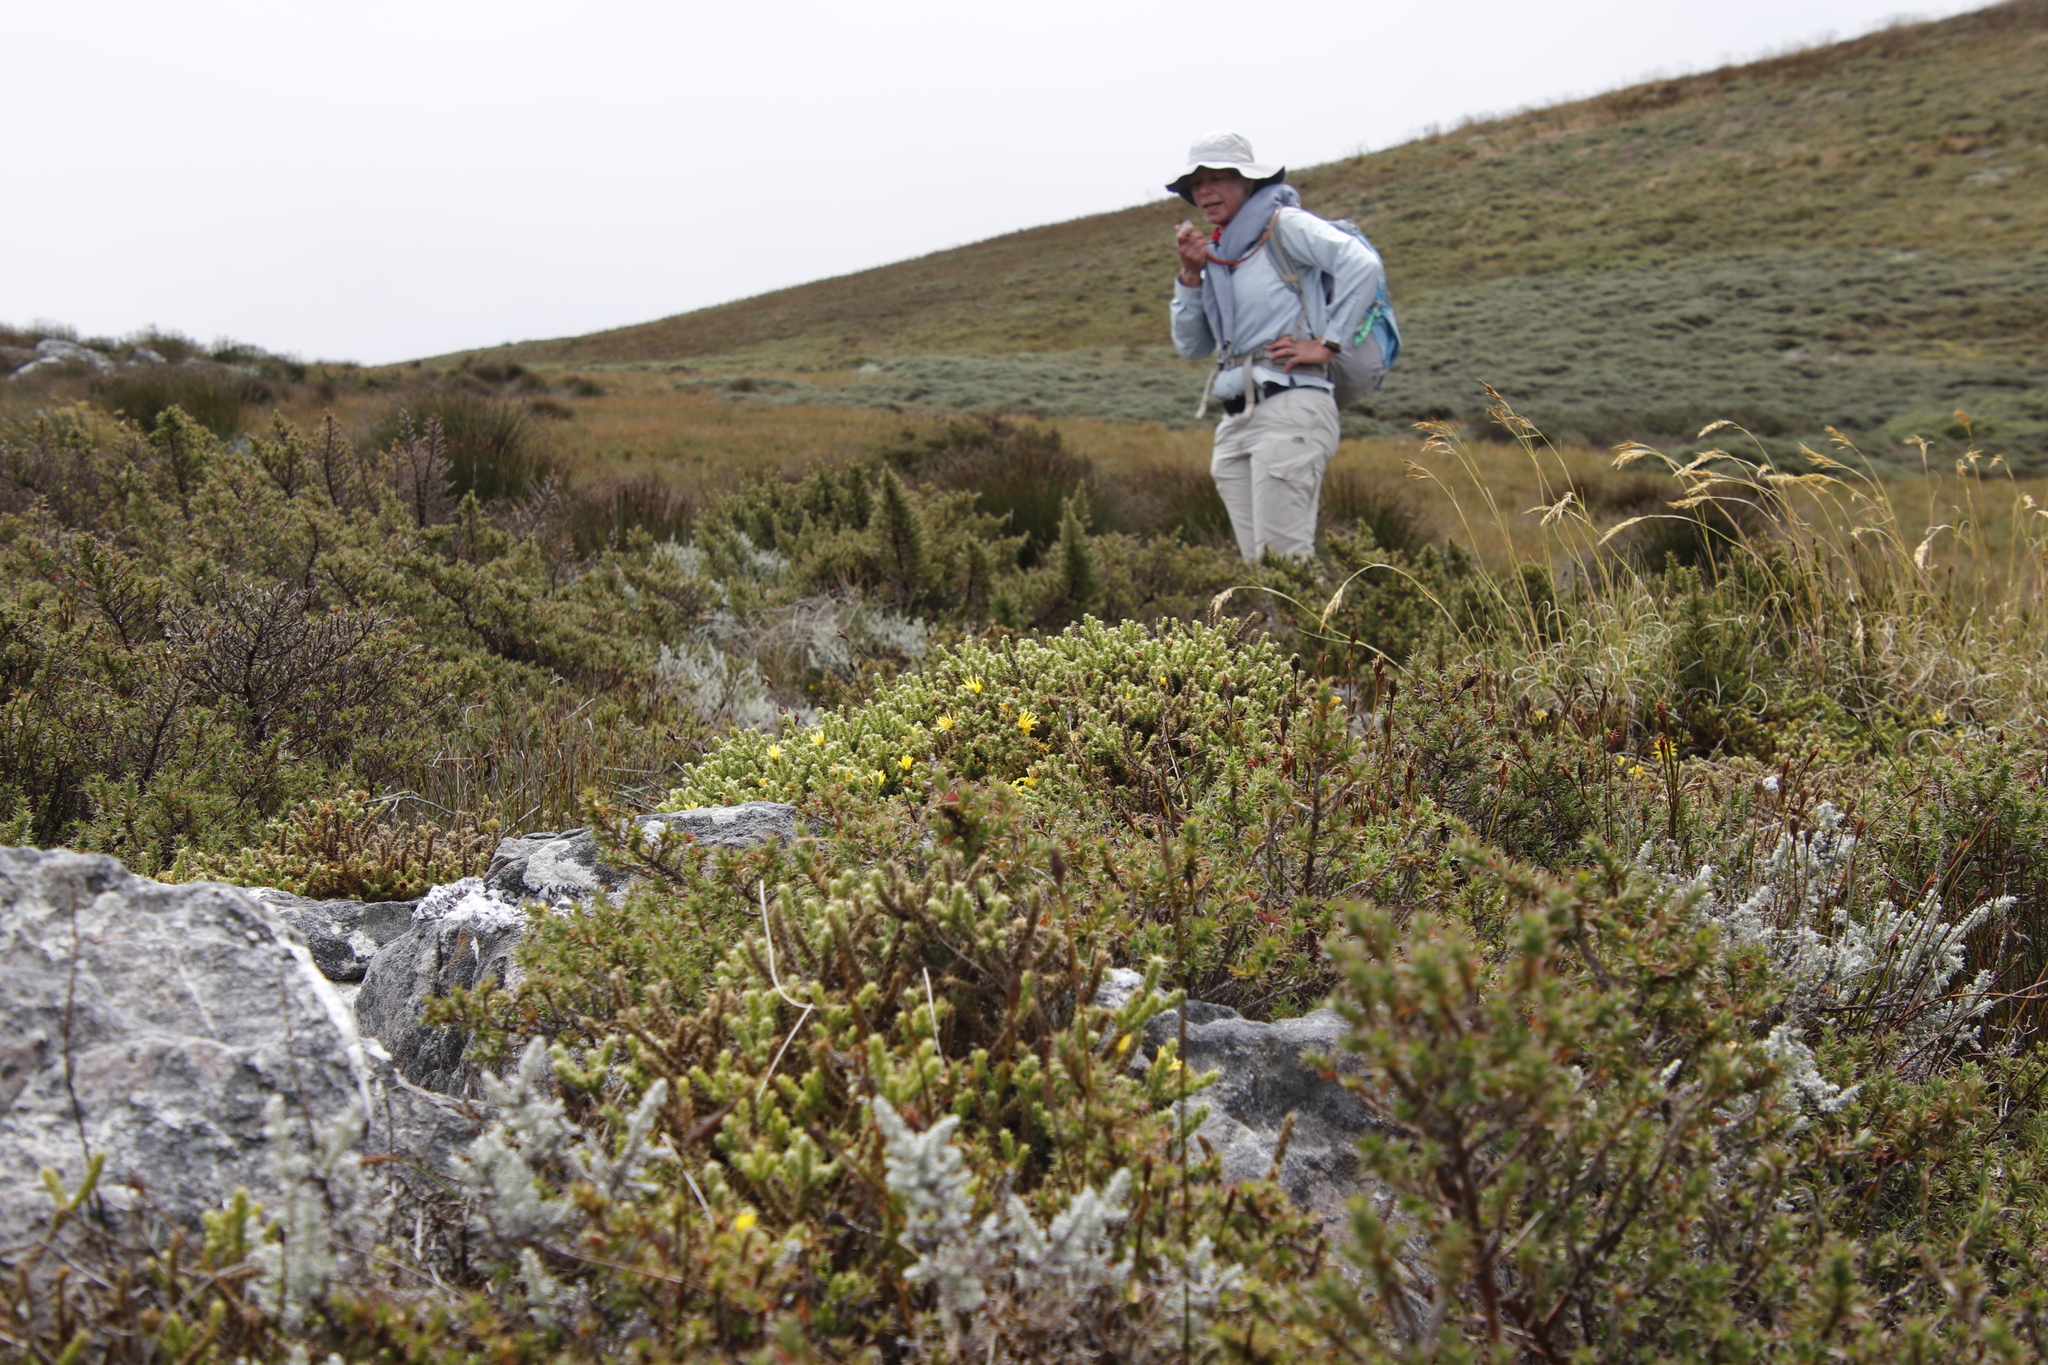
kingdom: Plantae
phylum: Tracheophyta
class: Magnoliopsida
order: Asterales
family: Asteraceae
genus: Cullumia
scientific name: Cullumia reticulata
